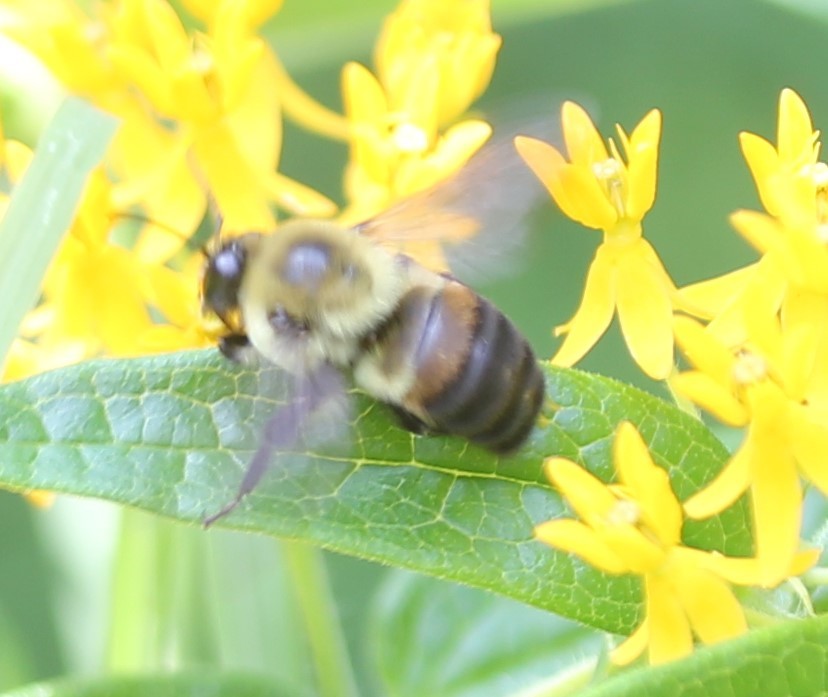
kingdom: Animalia
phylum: Arthropoda
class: Insecta
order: Hymenoptera
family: Apidae
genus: Bombus
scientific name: Bombus griseocollis
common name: Brown-belted bumble bee
